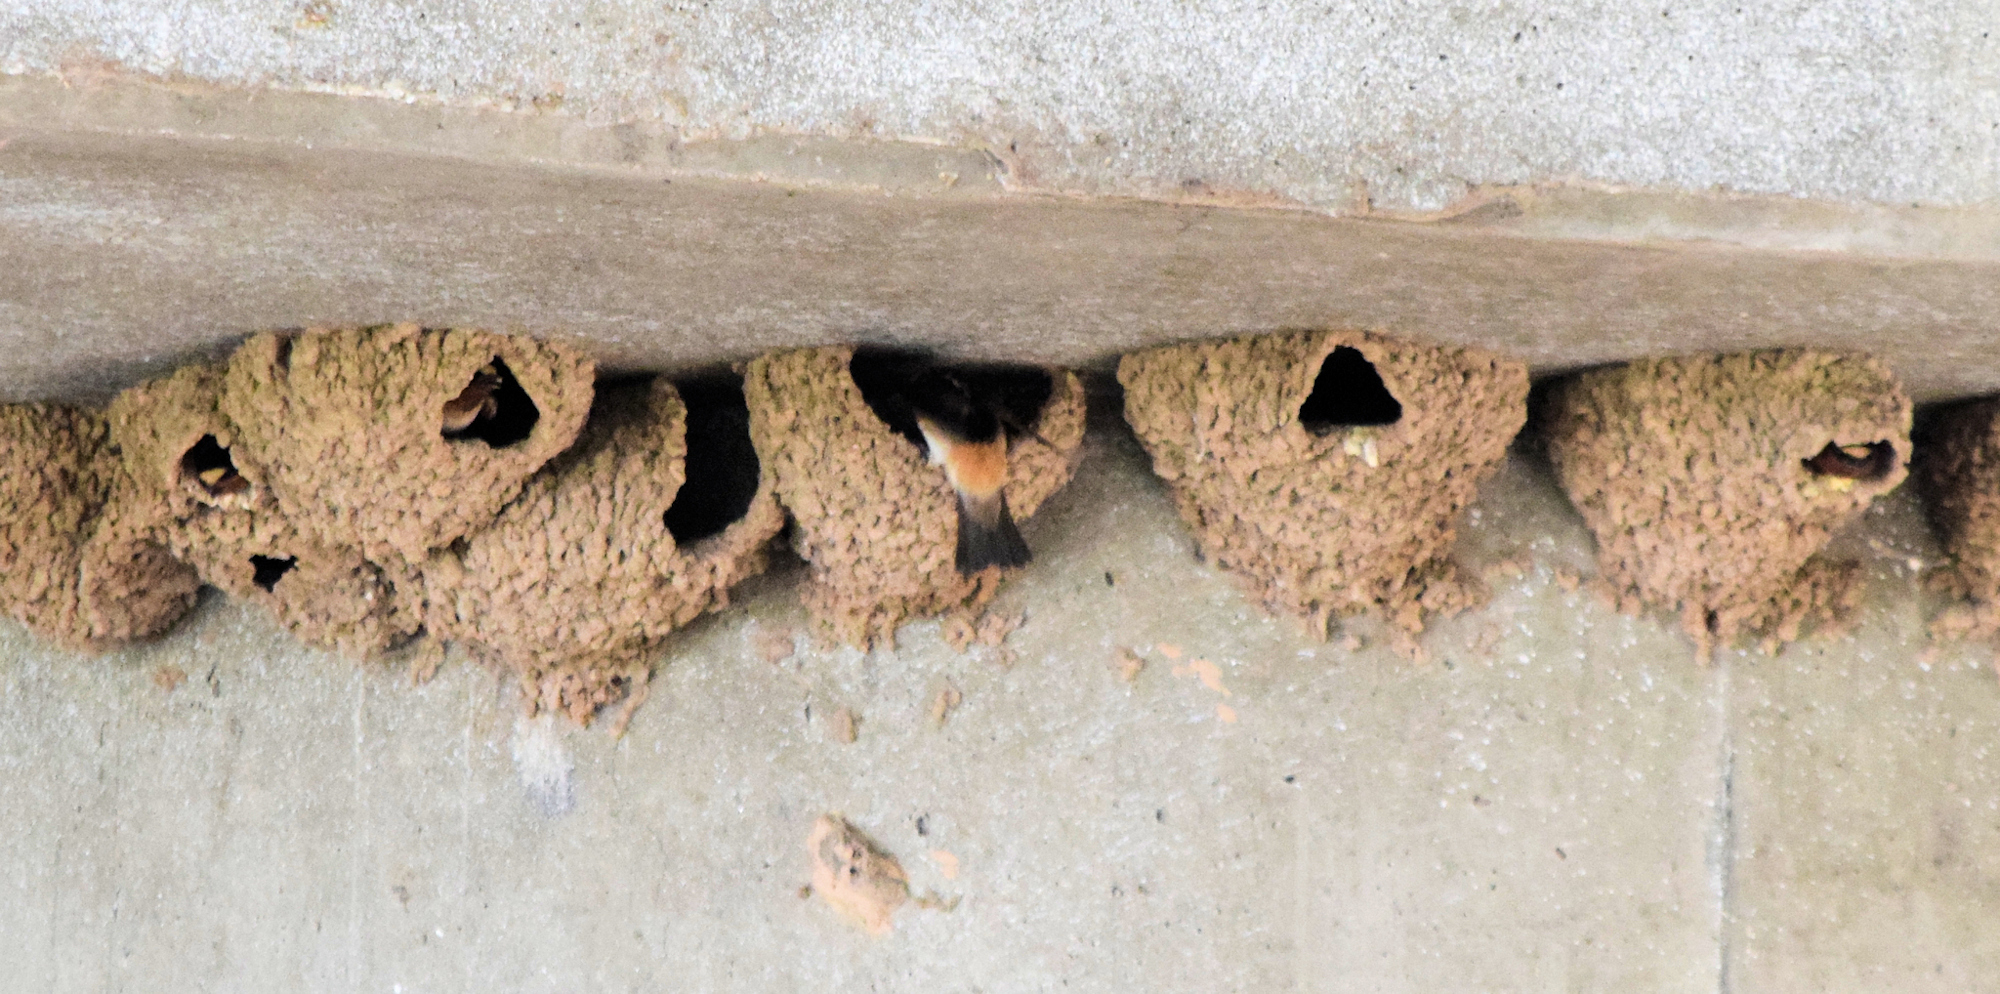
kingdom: Animalia
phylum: Chordata
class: Aves
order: Passeriformes
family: Hirundinidae
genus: Petrochelidon
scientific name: Petrochelidon pyrrhonota
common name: American cliff swallow
